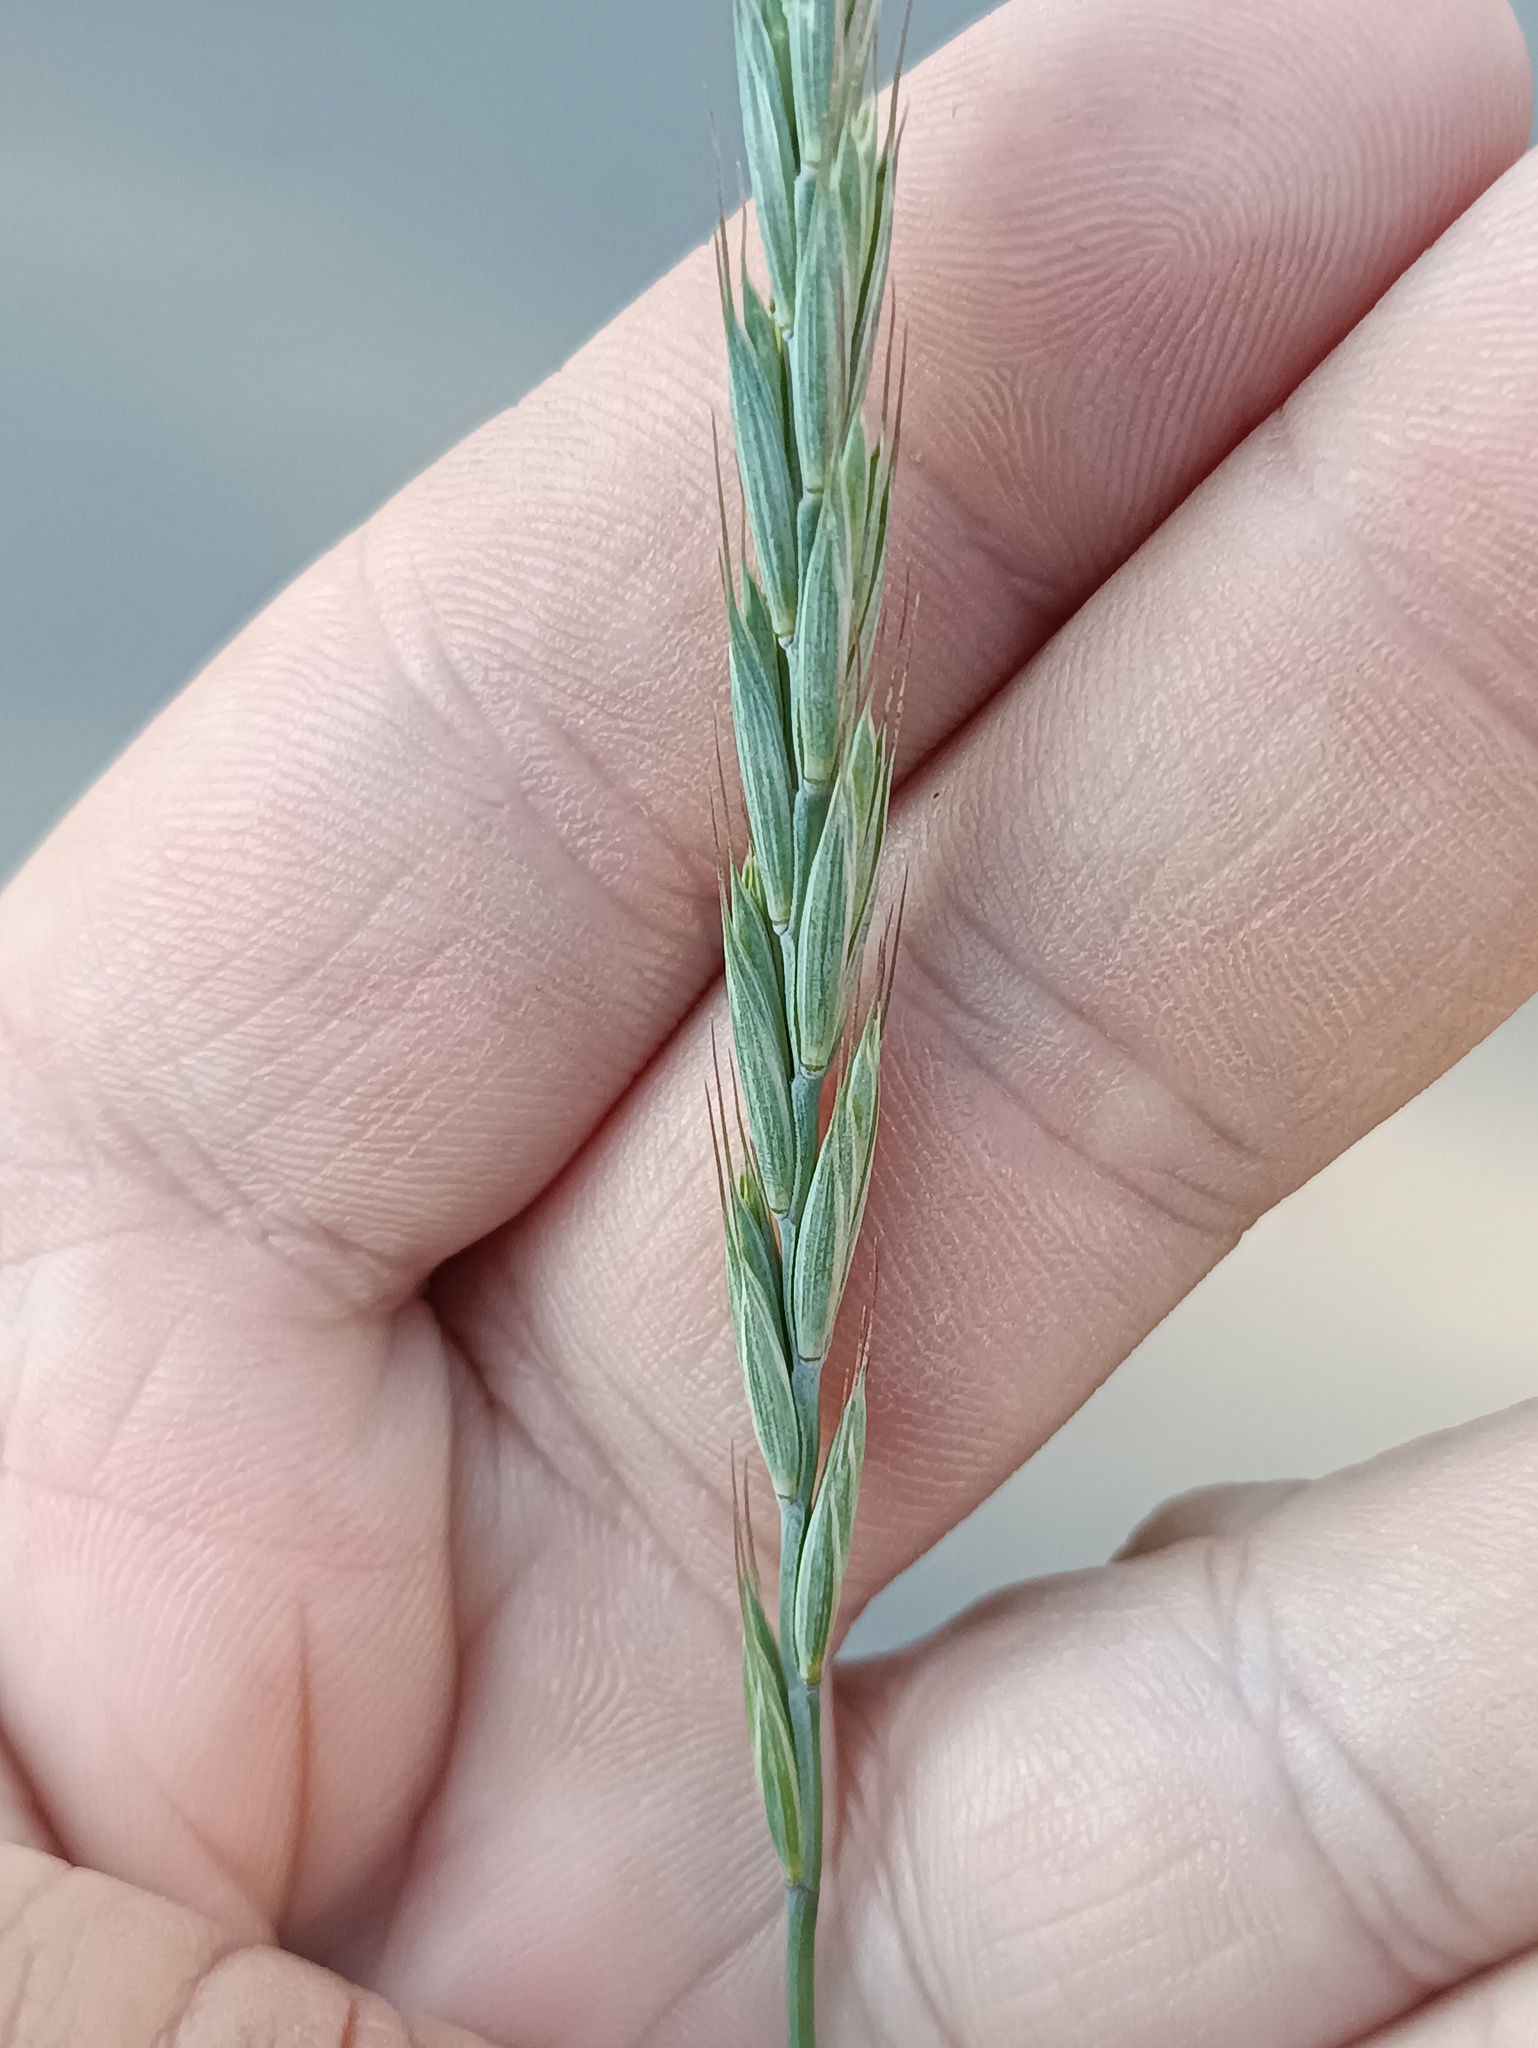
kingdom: Plantae
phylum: Tracheophyta
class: Liliopsida
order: Poales
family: Poaceae
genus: Elymus
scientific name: Elymus repens
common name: Quackgrass
